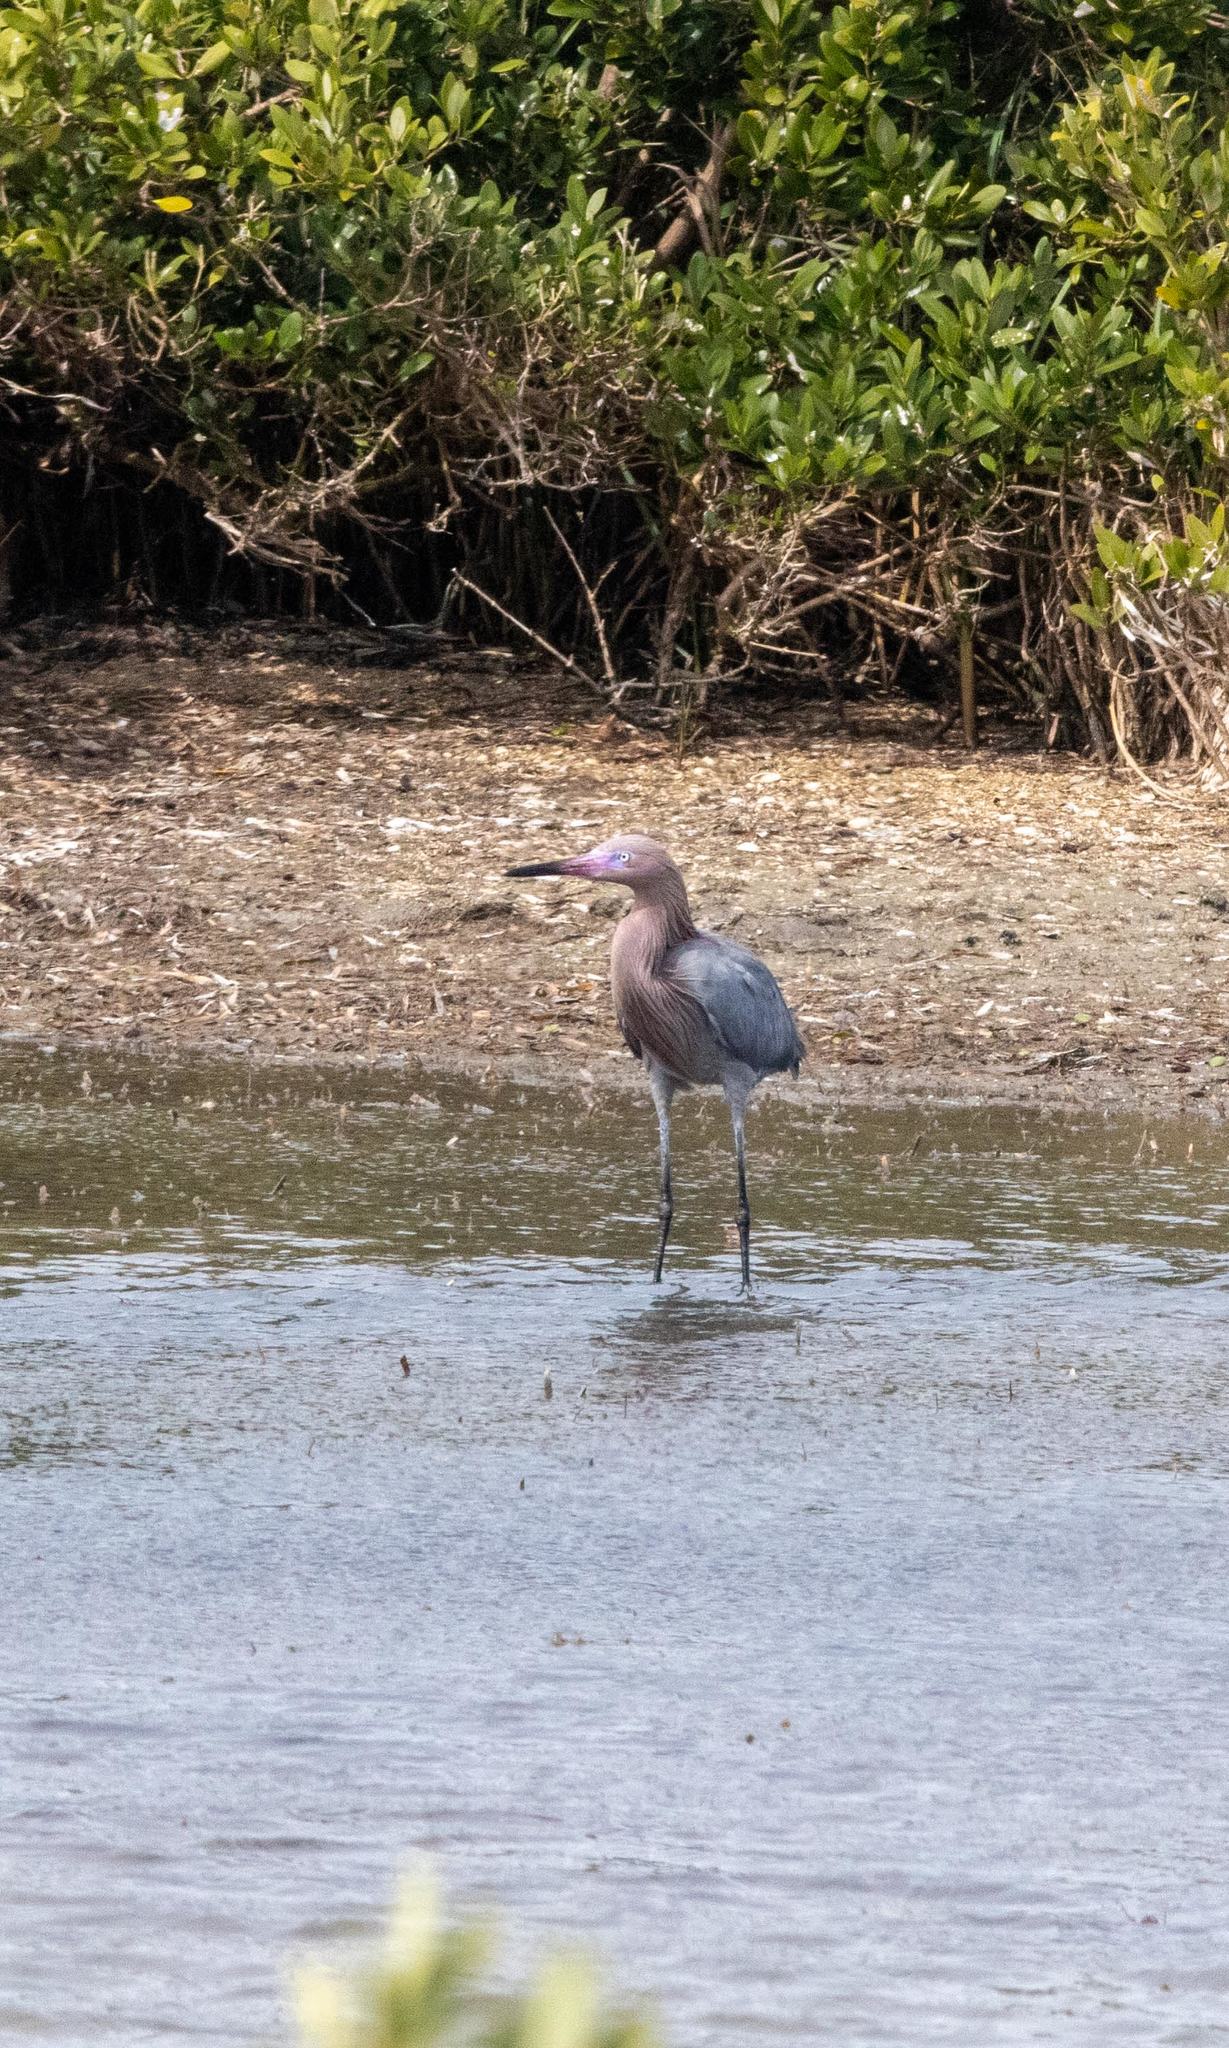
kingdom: Animalia
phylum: Chordata
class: Aves
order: Pelecaniformes
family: Ardeidae
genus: Egretta
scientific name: Egretta rufescens
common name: Reddish egret
